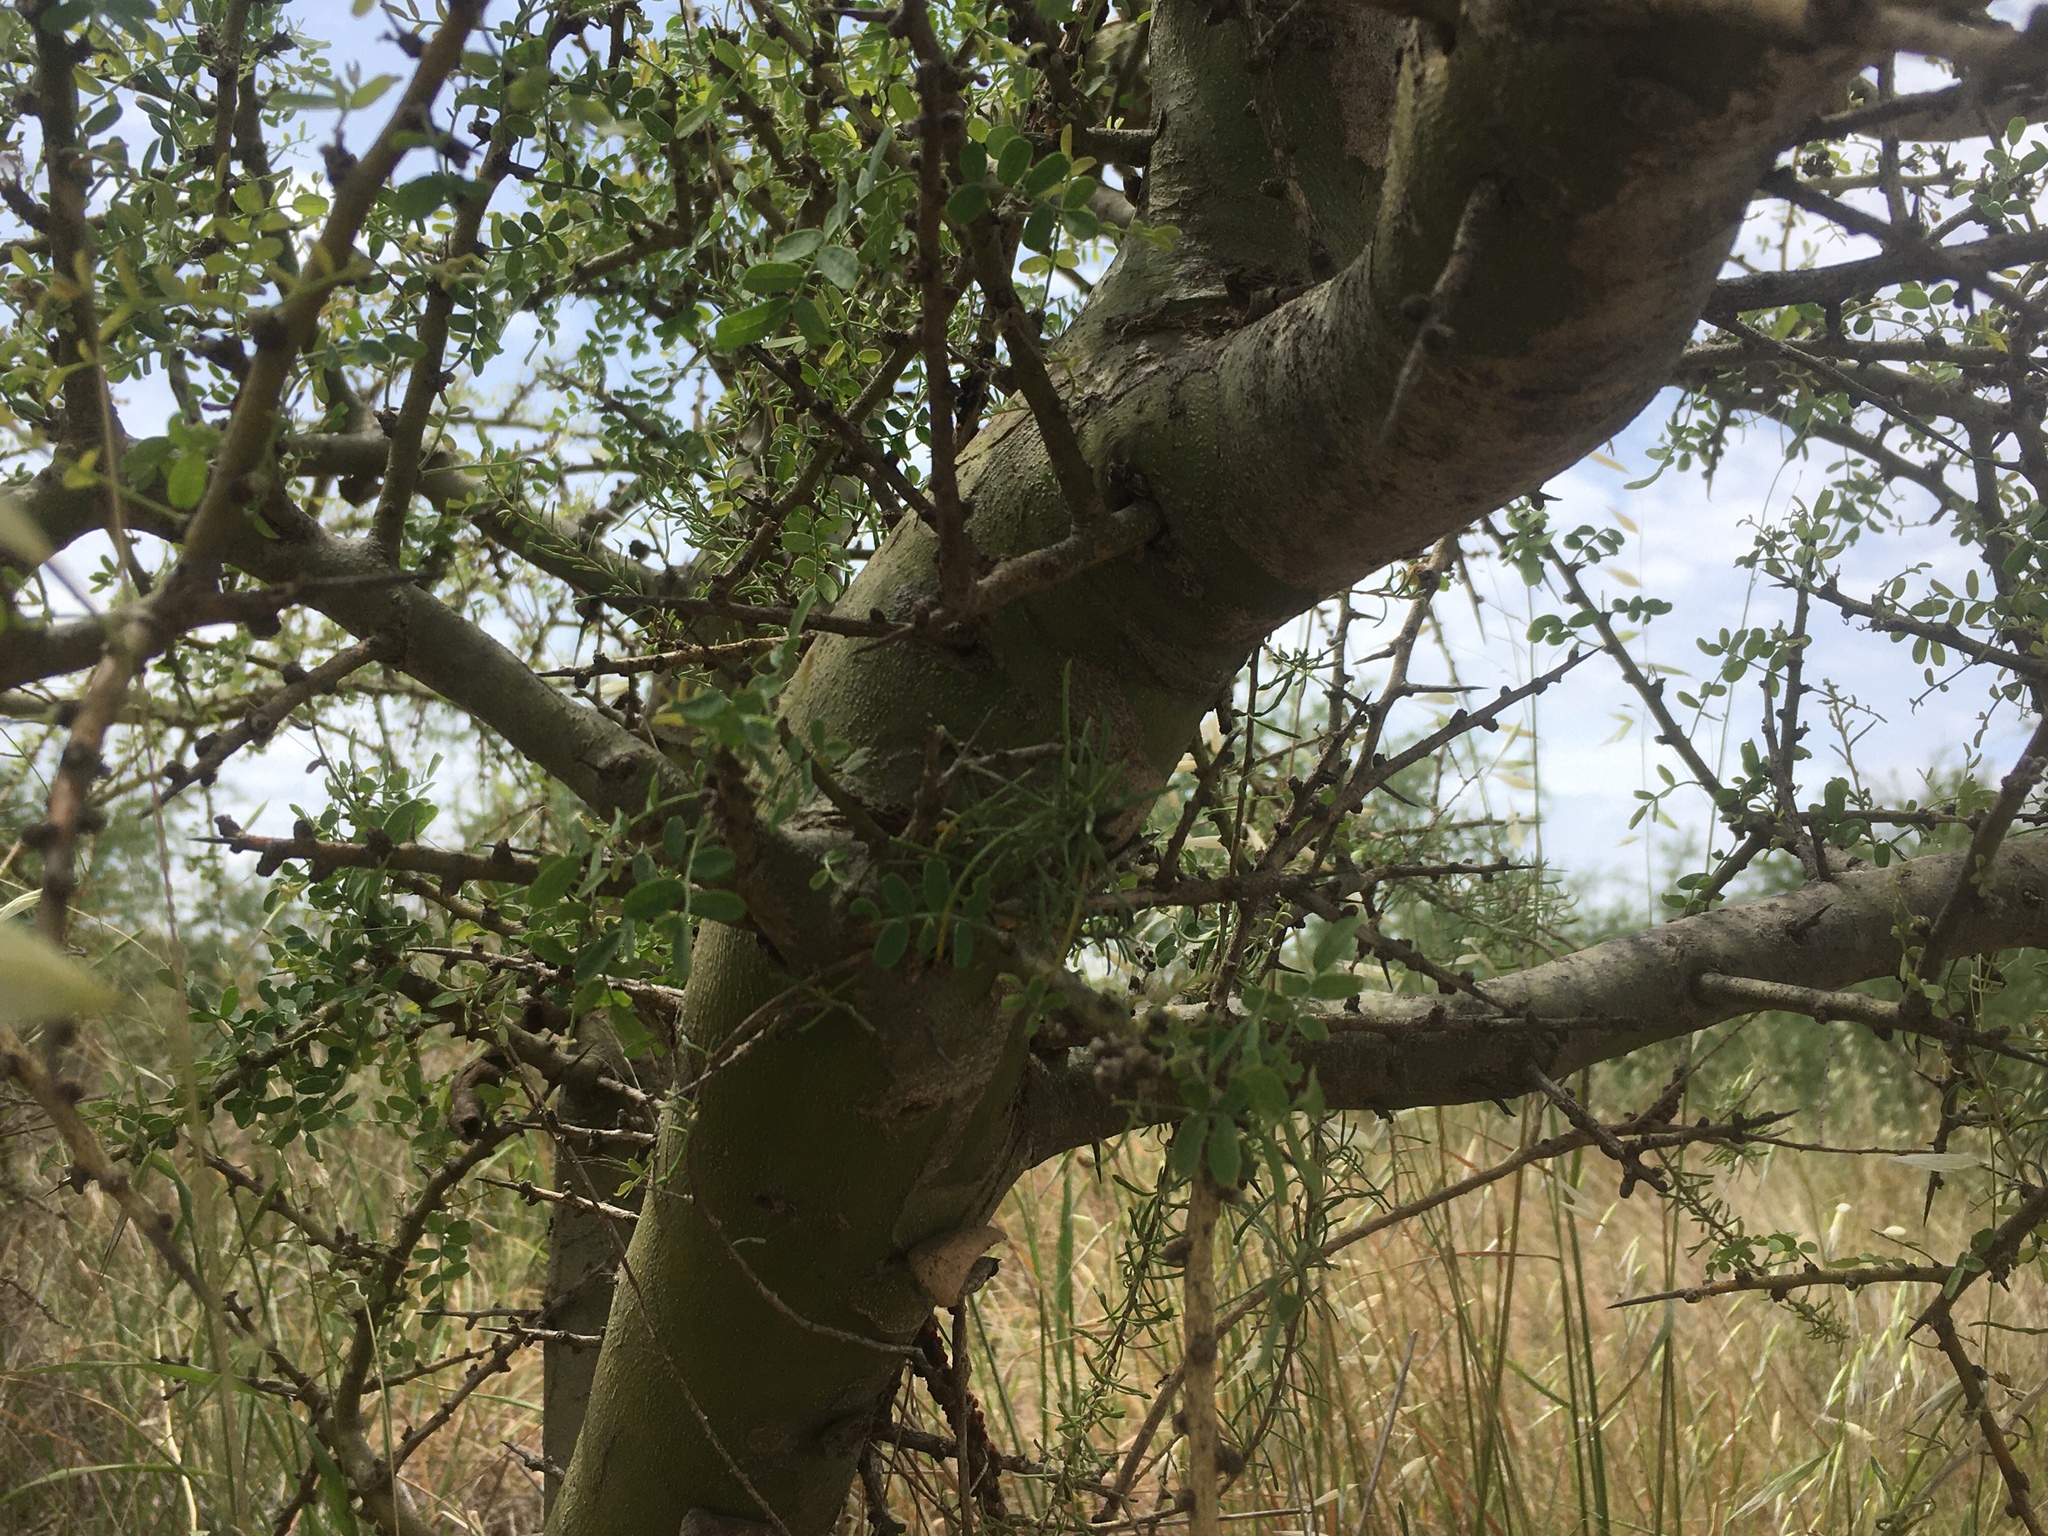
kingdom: Plantae
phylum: Tracheophyta
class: Magnoliopsida
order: Fabales
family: Fabaceae
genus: Geoffroea
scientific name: Geoffroea decorticans
